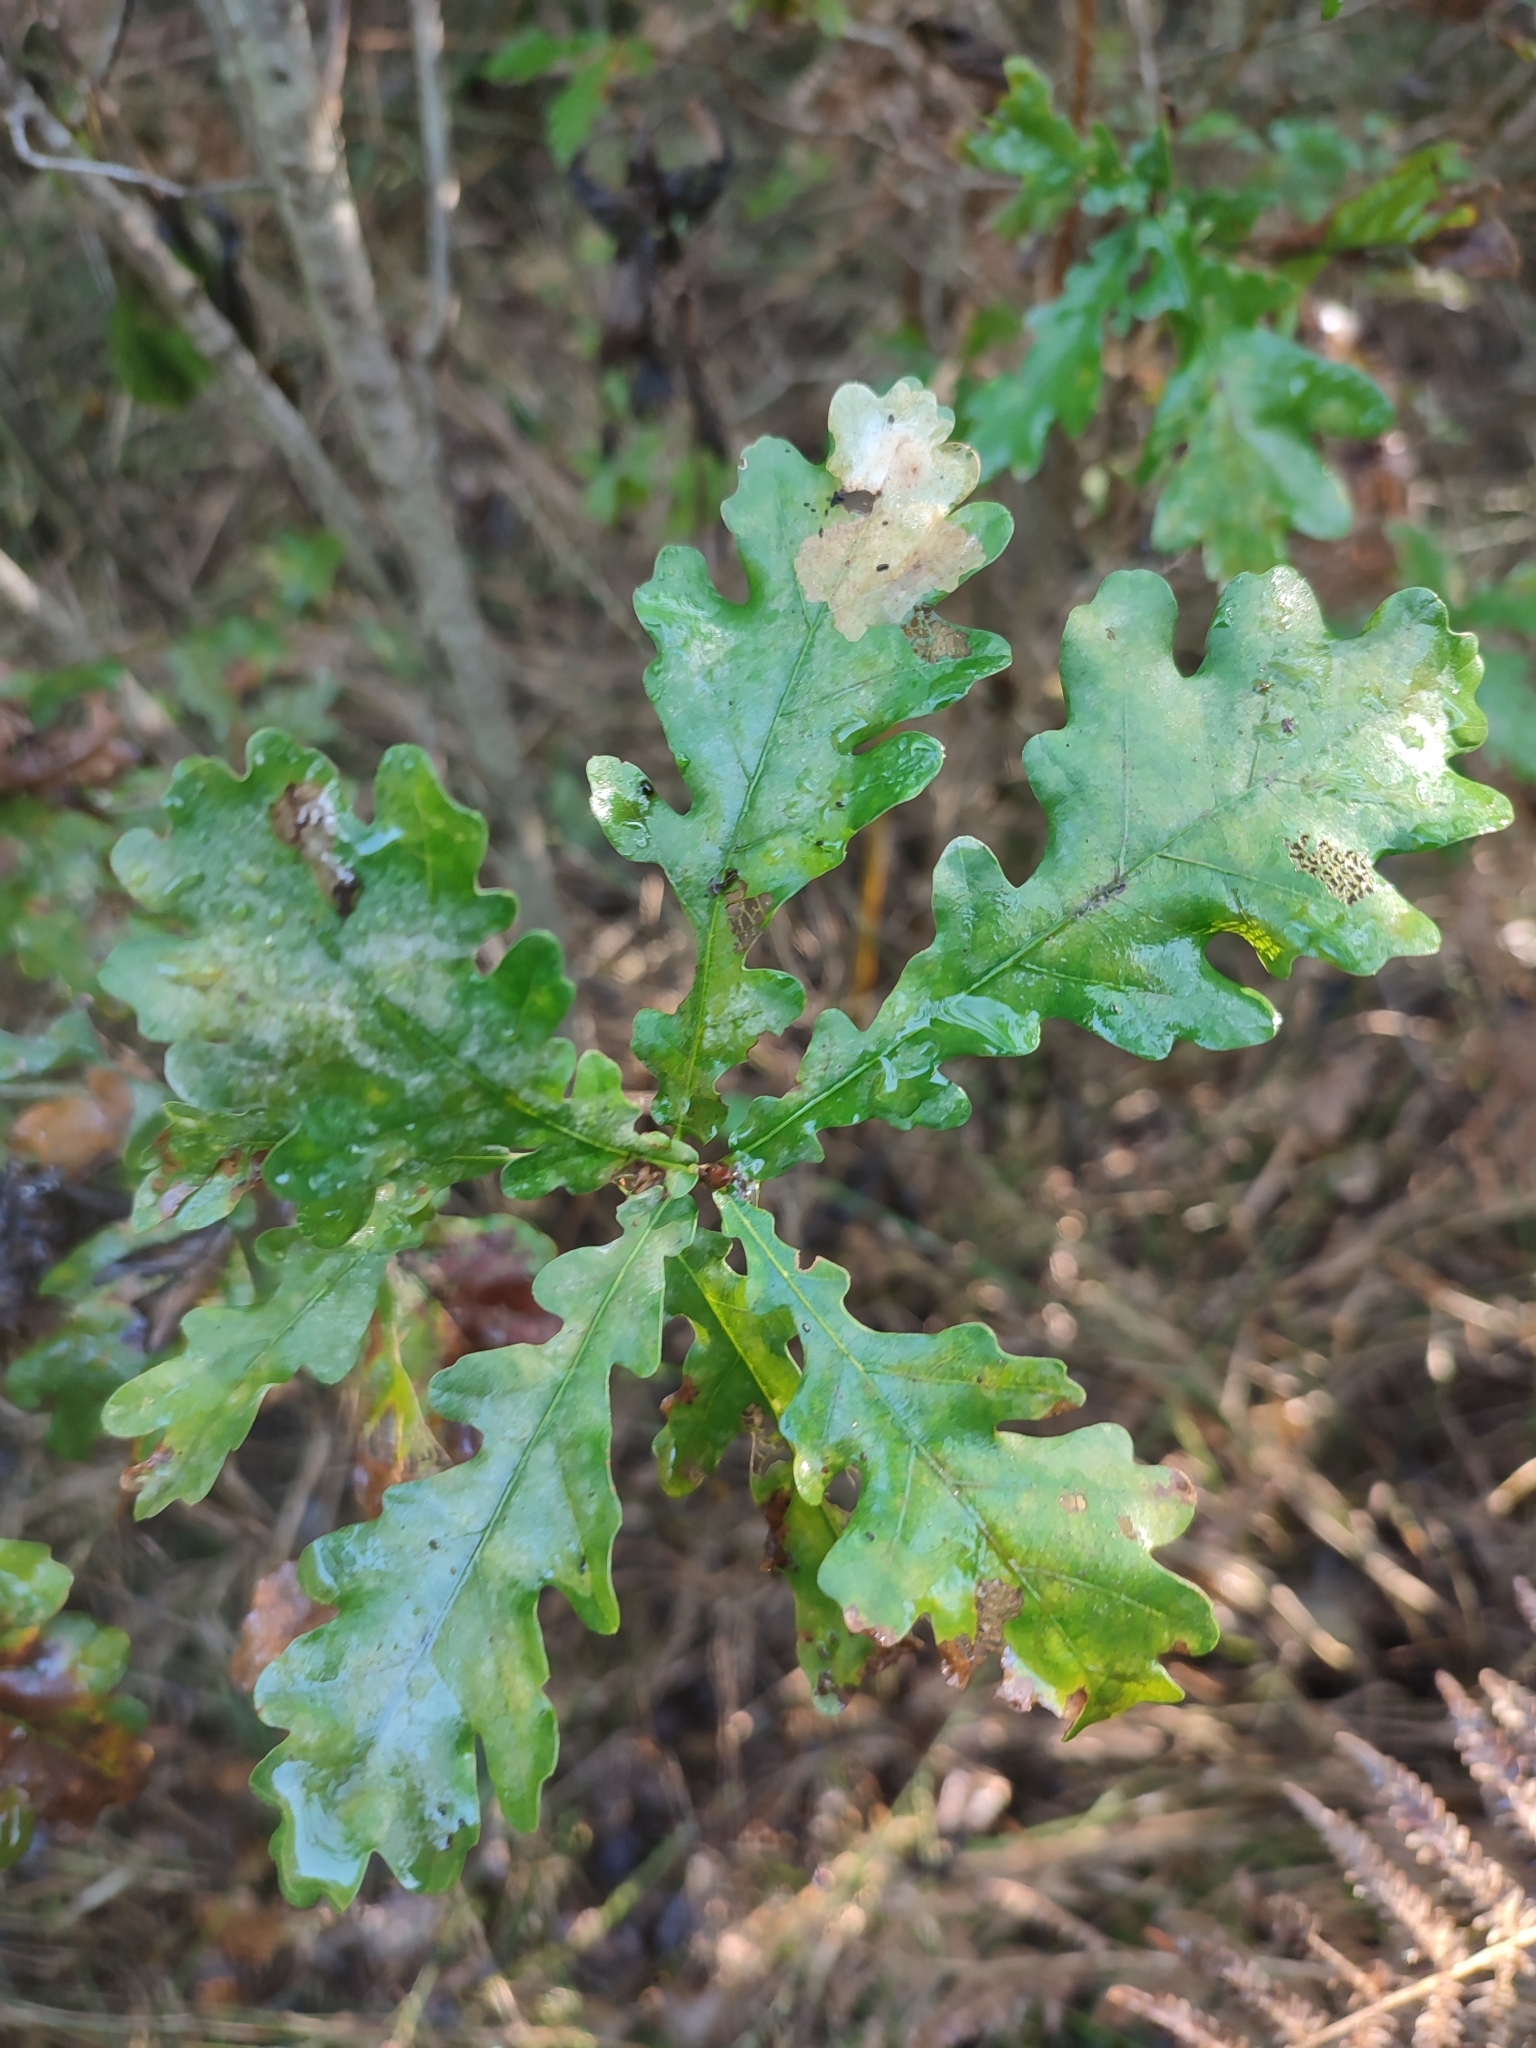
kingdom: Plantae
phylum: Tracheophyta
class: Magnoliopsida
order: Fagales
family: Fagaceae
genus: Quercus
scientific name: Quercus robur
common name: Pedunculate oak
